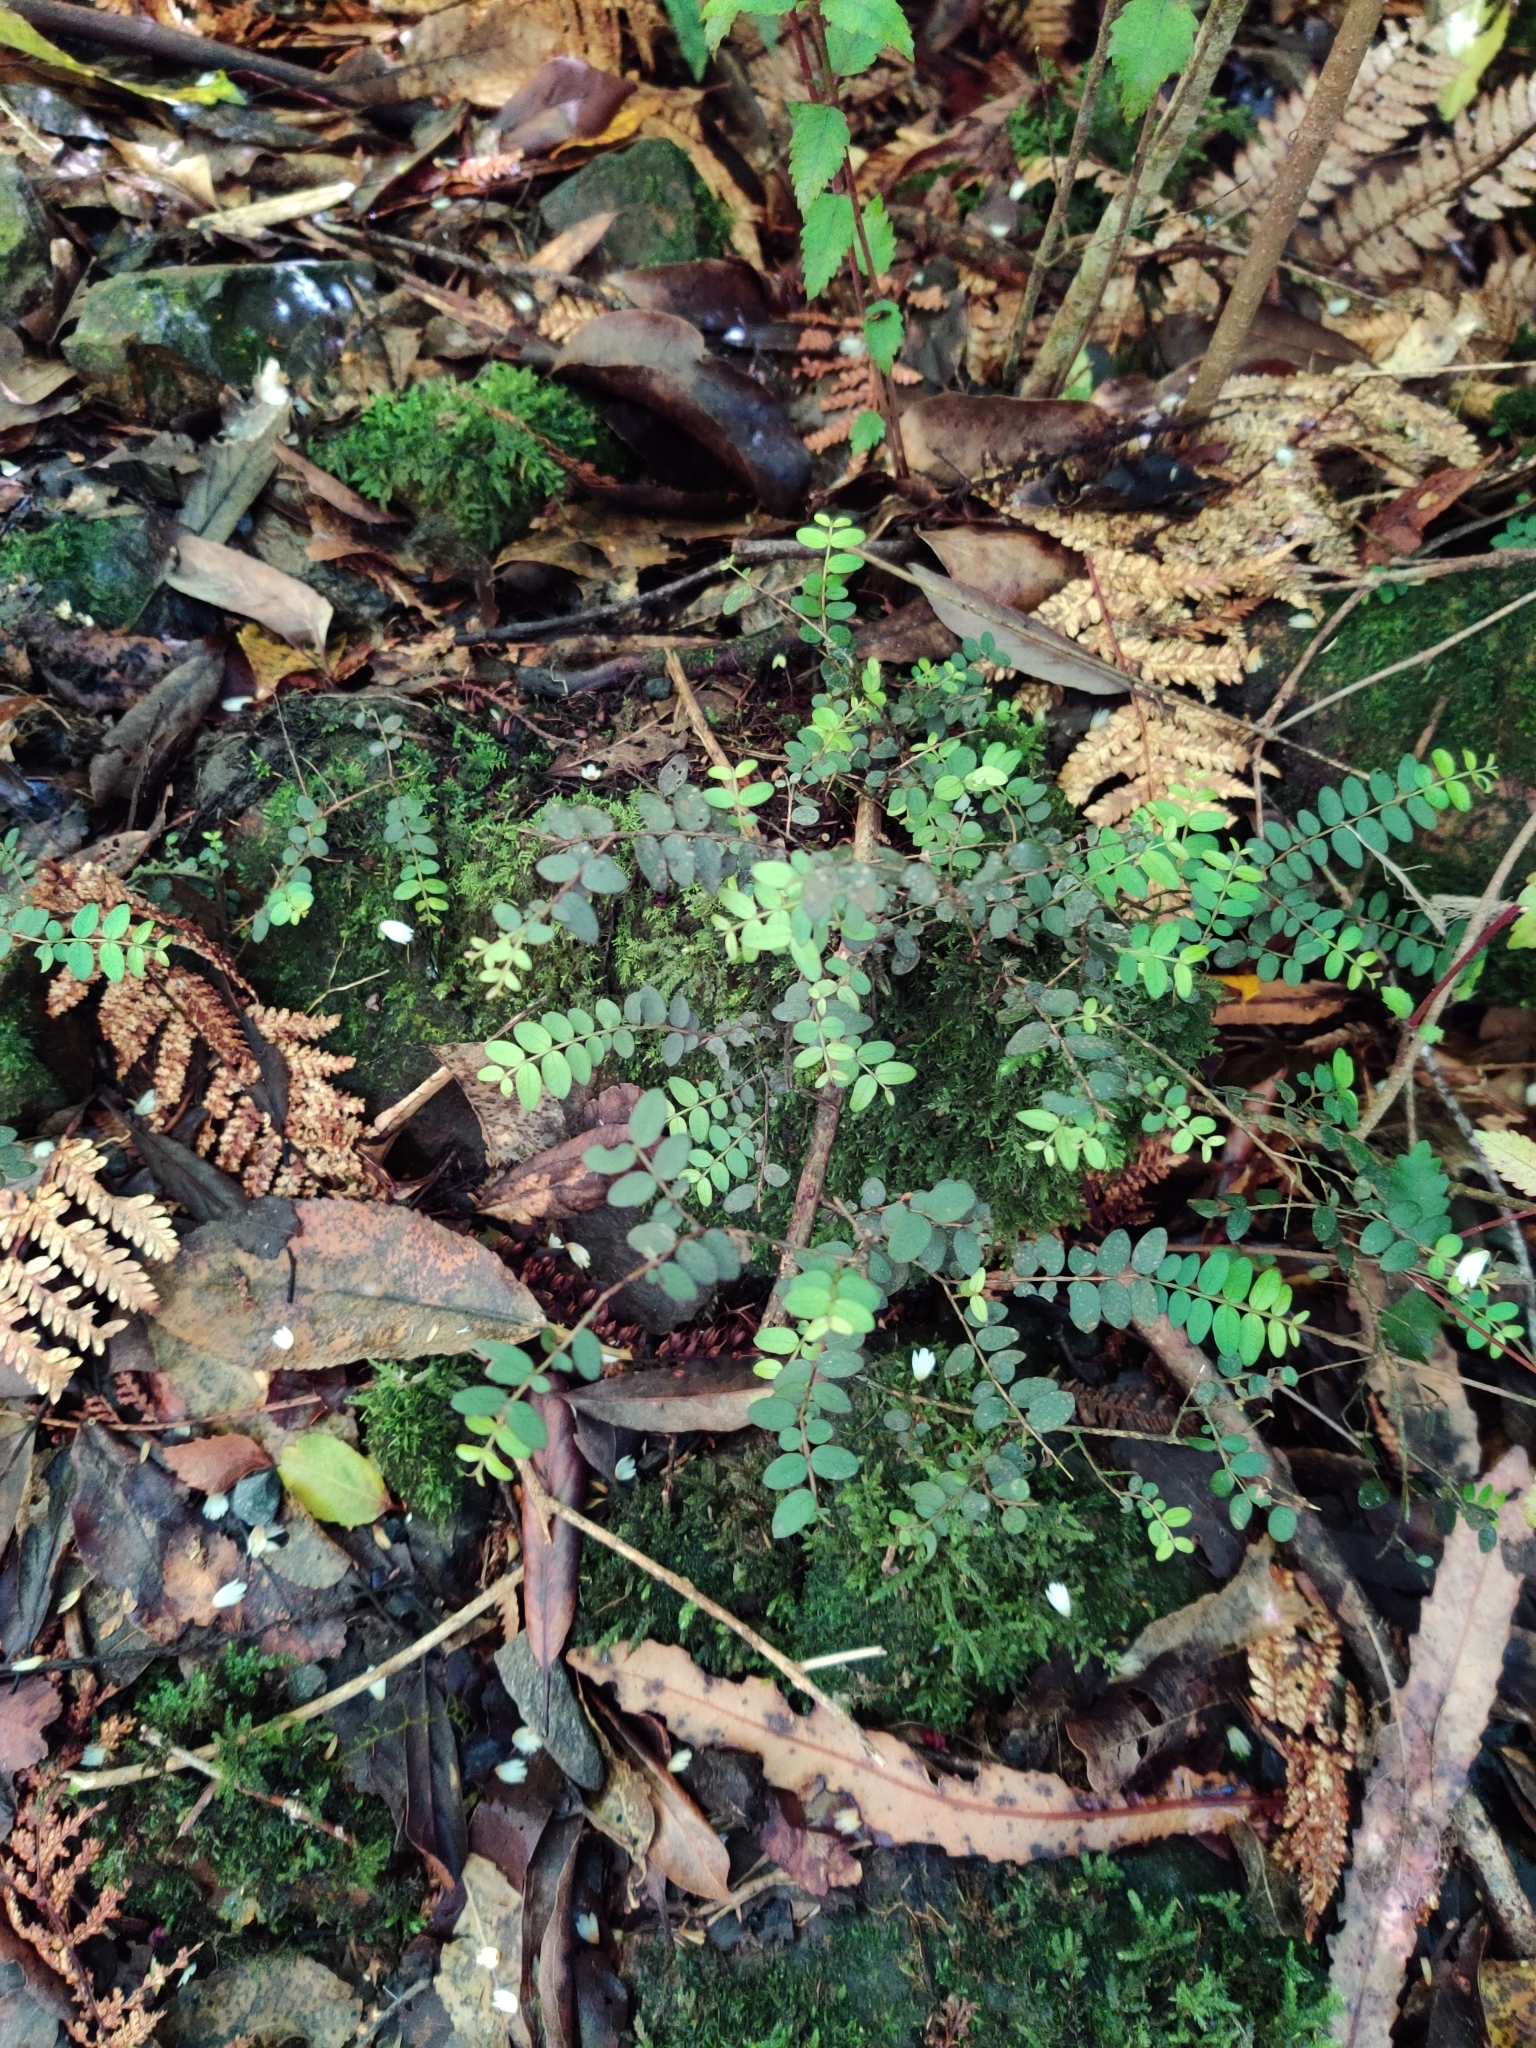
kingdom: Plantae
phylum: Tracheophyta
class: Magnoliopsida
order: Myrtales
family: Myrtaceae
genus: Metrosideros
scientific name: Metrosideros diffusa
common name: Small ratavine
